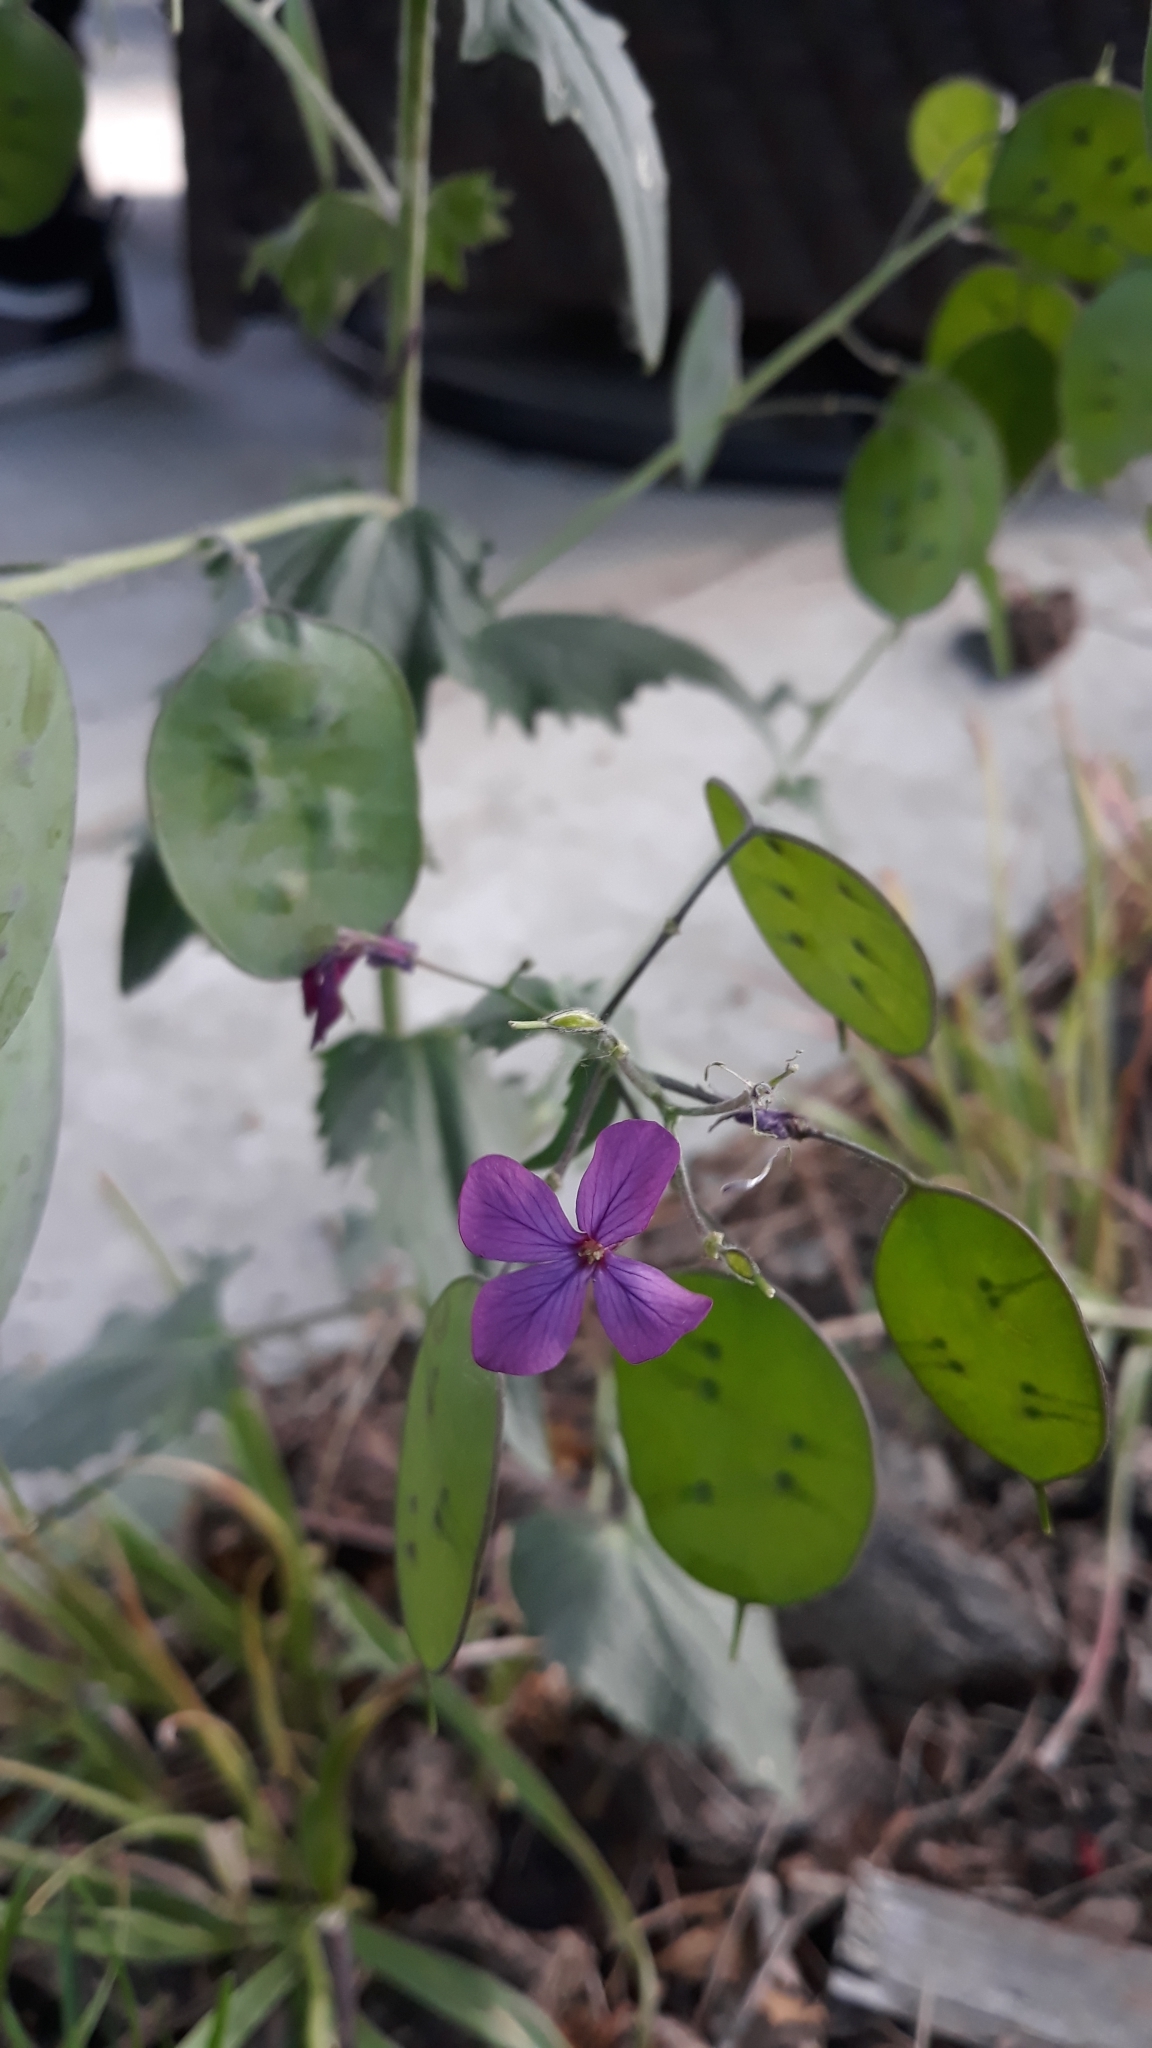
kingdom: Plantae
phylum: Tracheophyta
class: Magnoliopsida
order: Brassicales
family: Brassicaceae
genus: Lunaria
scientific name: Lunaria annua
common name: Honesty
